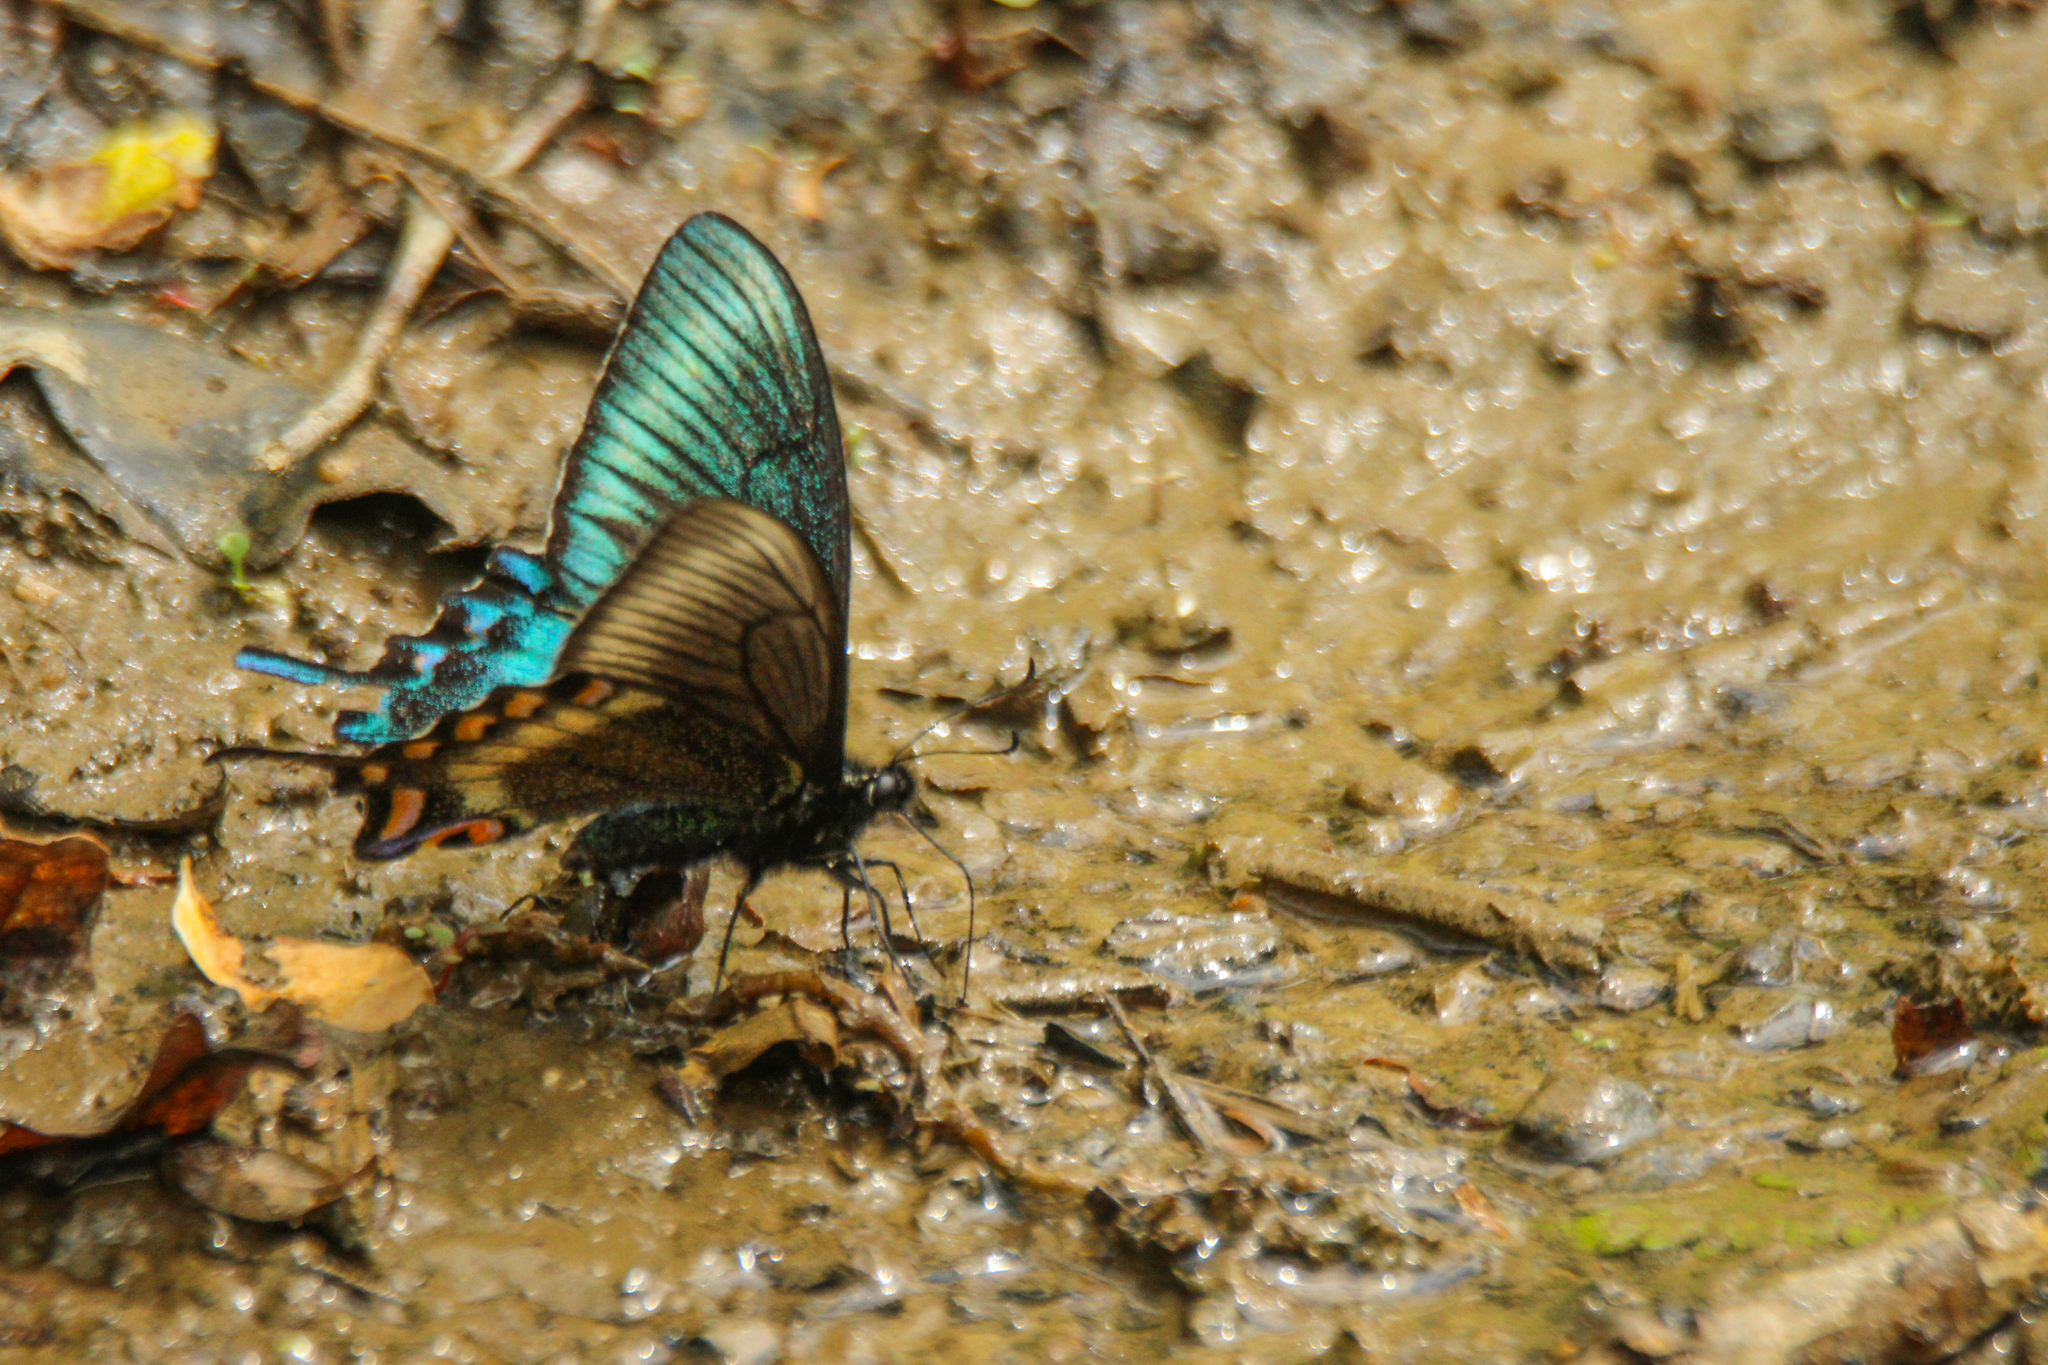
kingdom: Animalia
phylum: Arthropoda
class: Insecta
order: Lepidoptera
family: Papilionidae
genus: Papilio
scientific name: Papilio maackii
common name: Alpine black swallowtail
